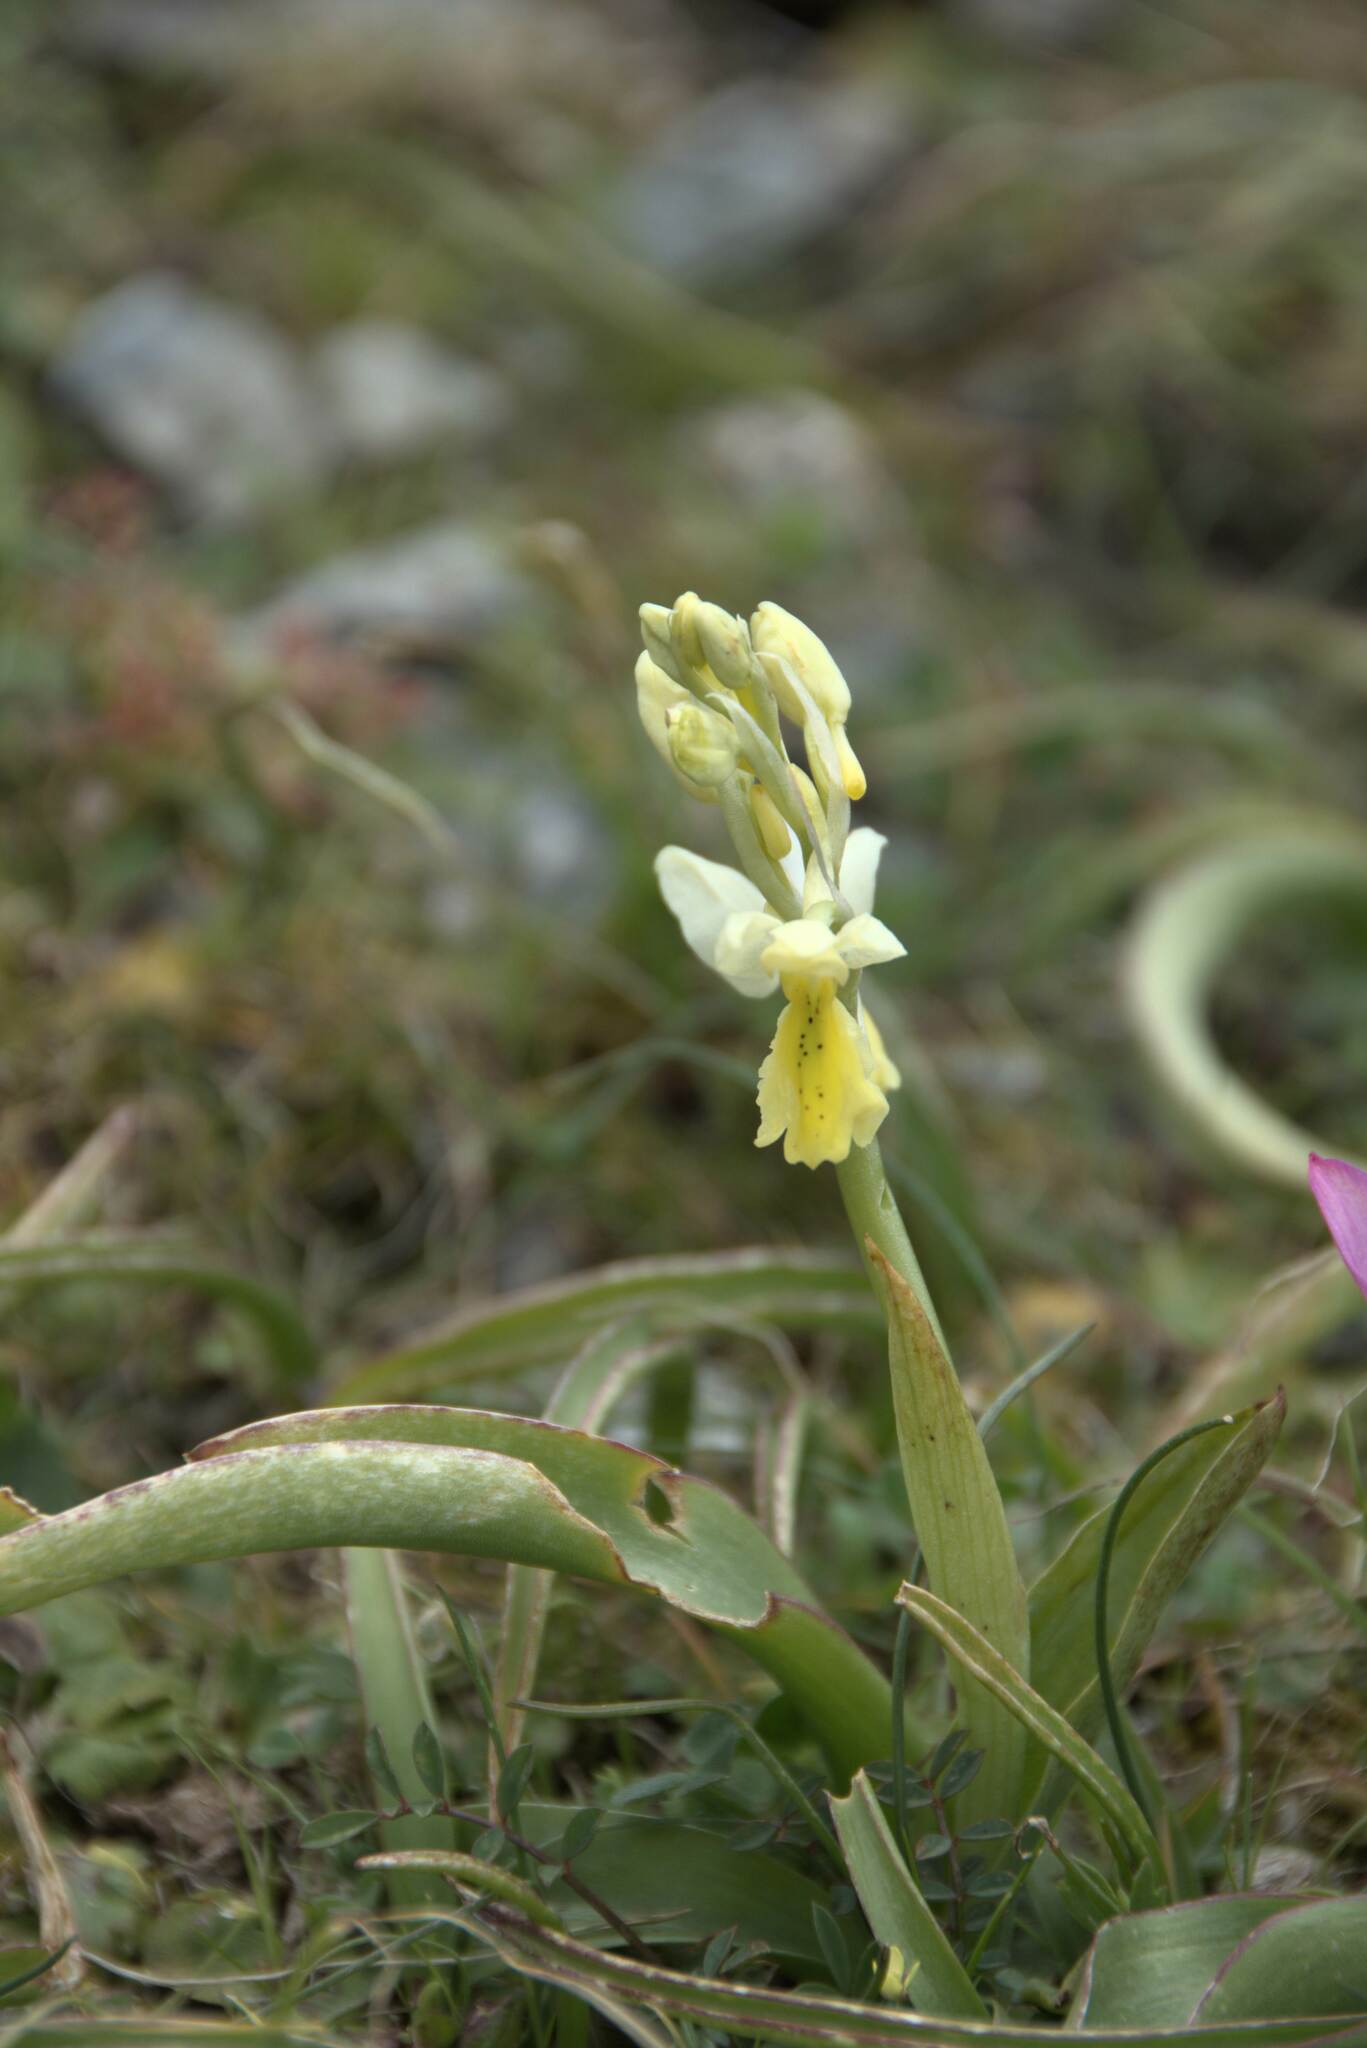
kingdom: Plantae
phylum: Tracheophyta
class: Liliopsida
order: Asparagales
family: Orchidaceae
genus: Orchis
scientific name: Orchis pauciflora
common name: Few-flowered orchid
